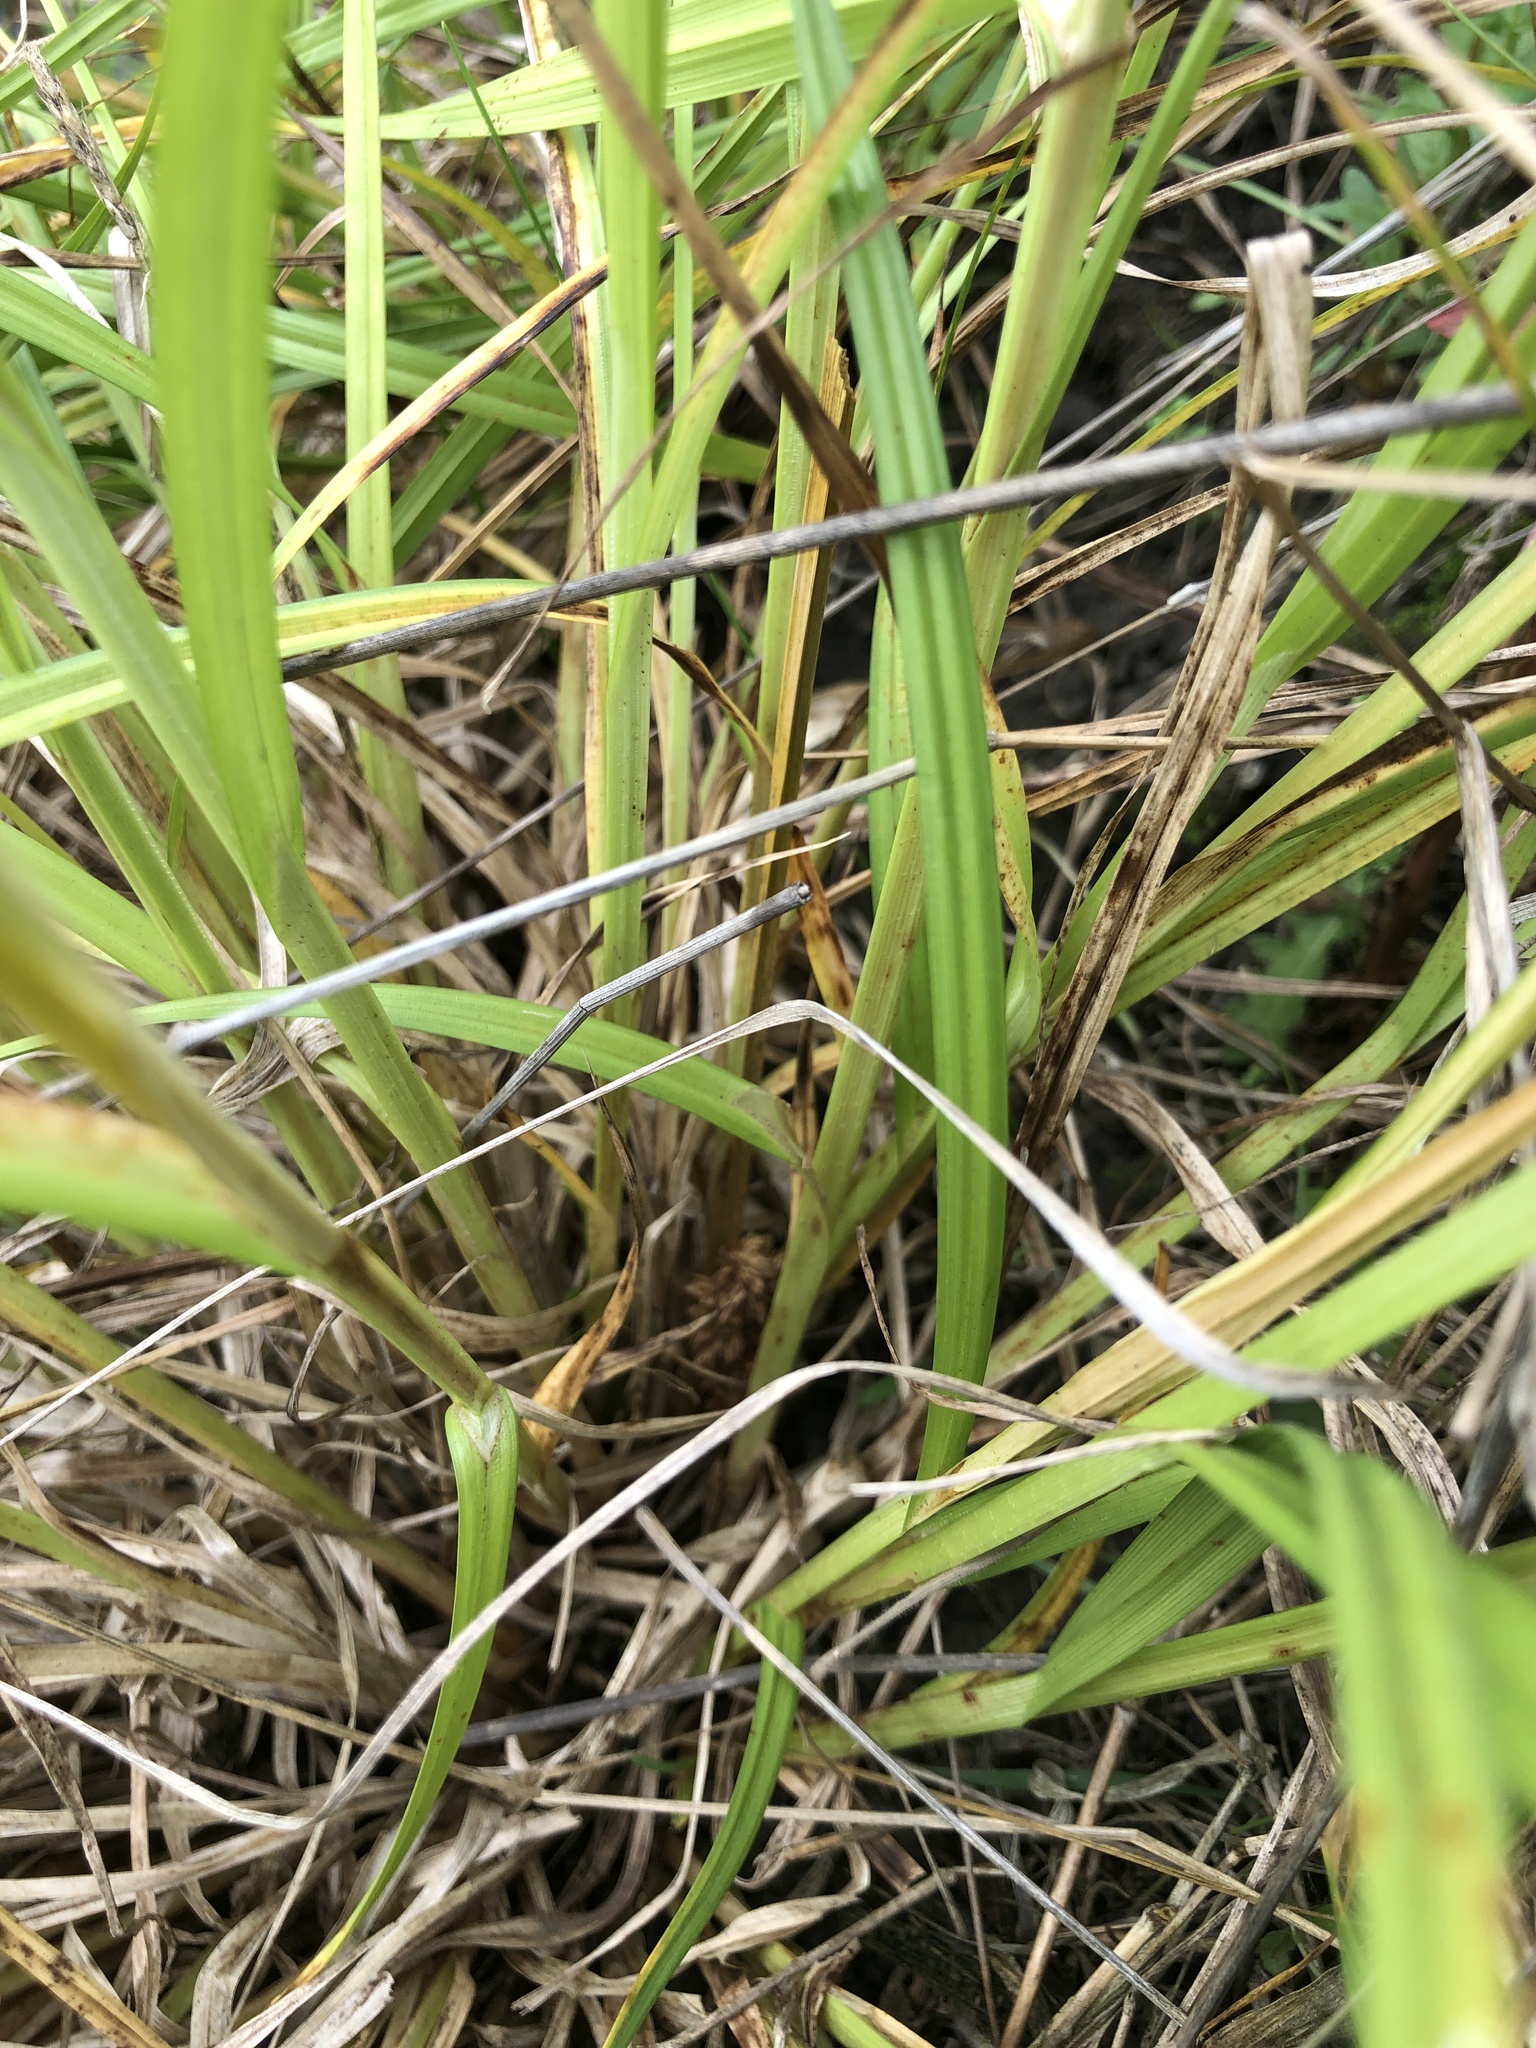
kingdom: Plantae
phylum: Tracheophyta
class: Liliopsida
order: Poales
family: Cyperaceae
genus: Carex
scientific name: Carex otrubae
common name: False fox-sedge
